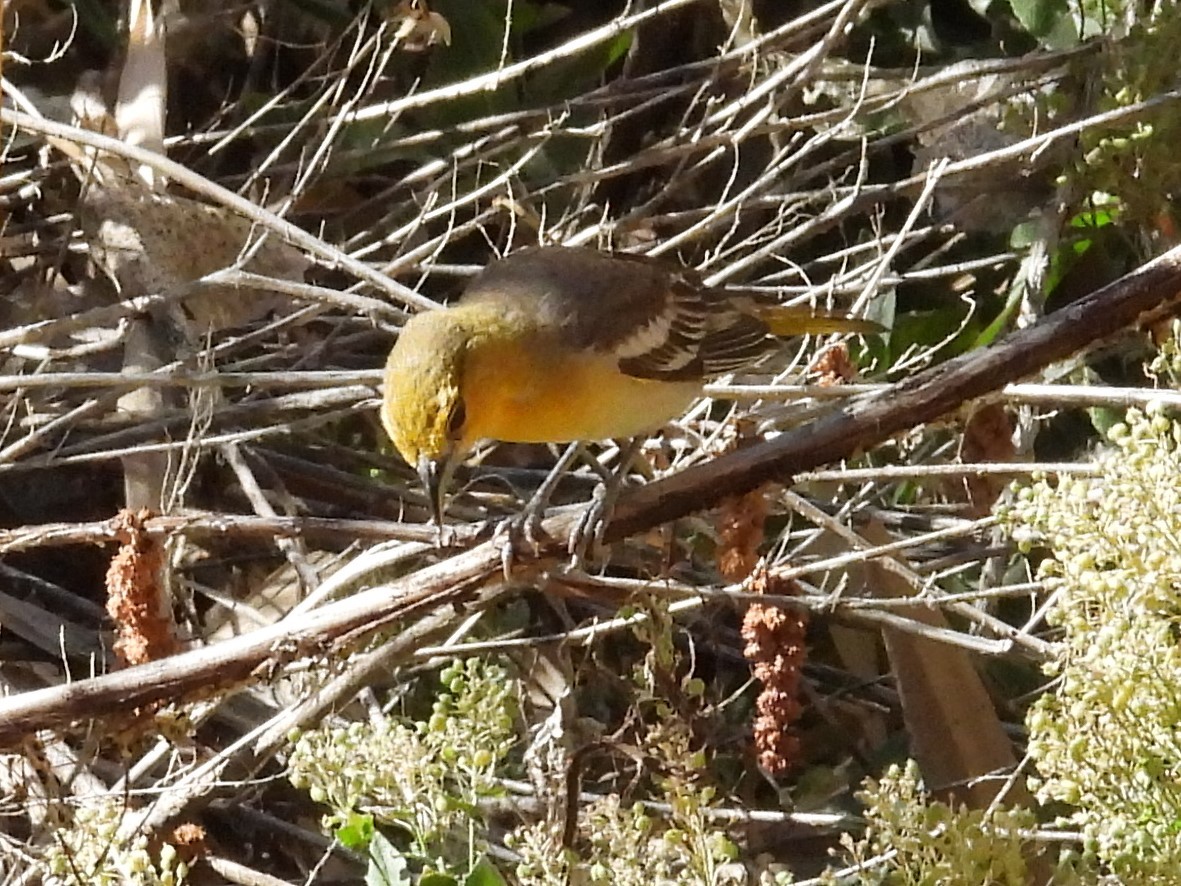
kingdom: Animalia
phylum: Chordata
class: Aves
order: Passeriformes
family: Icteridae
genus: Icterus
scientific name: Icterus bullockii
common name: Bullock's oriole
